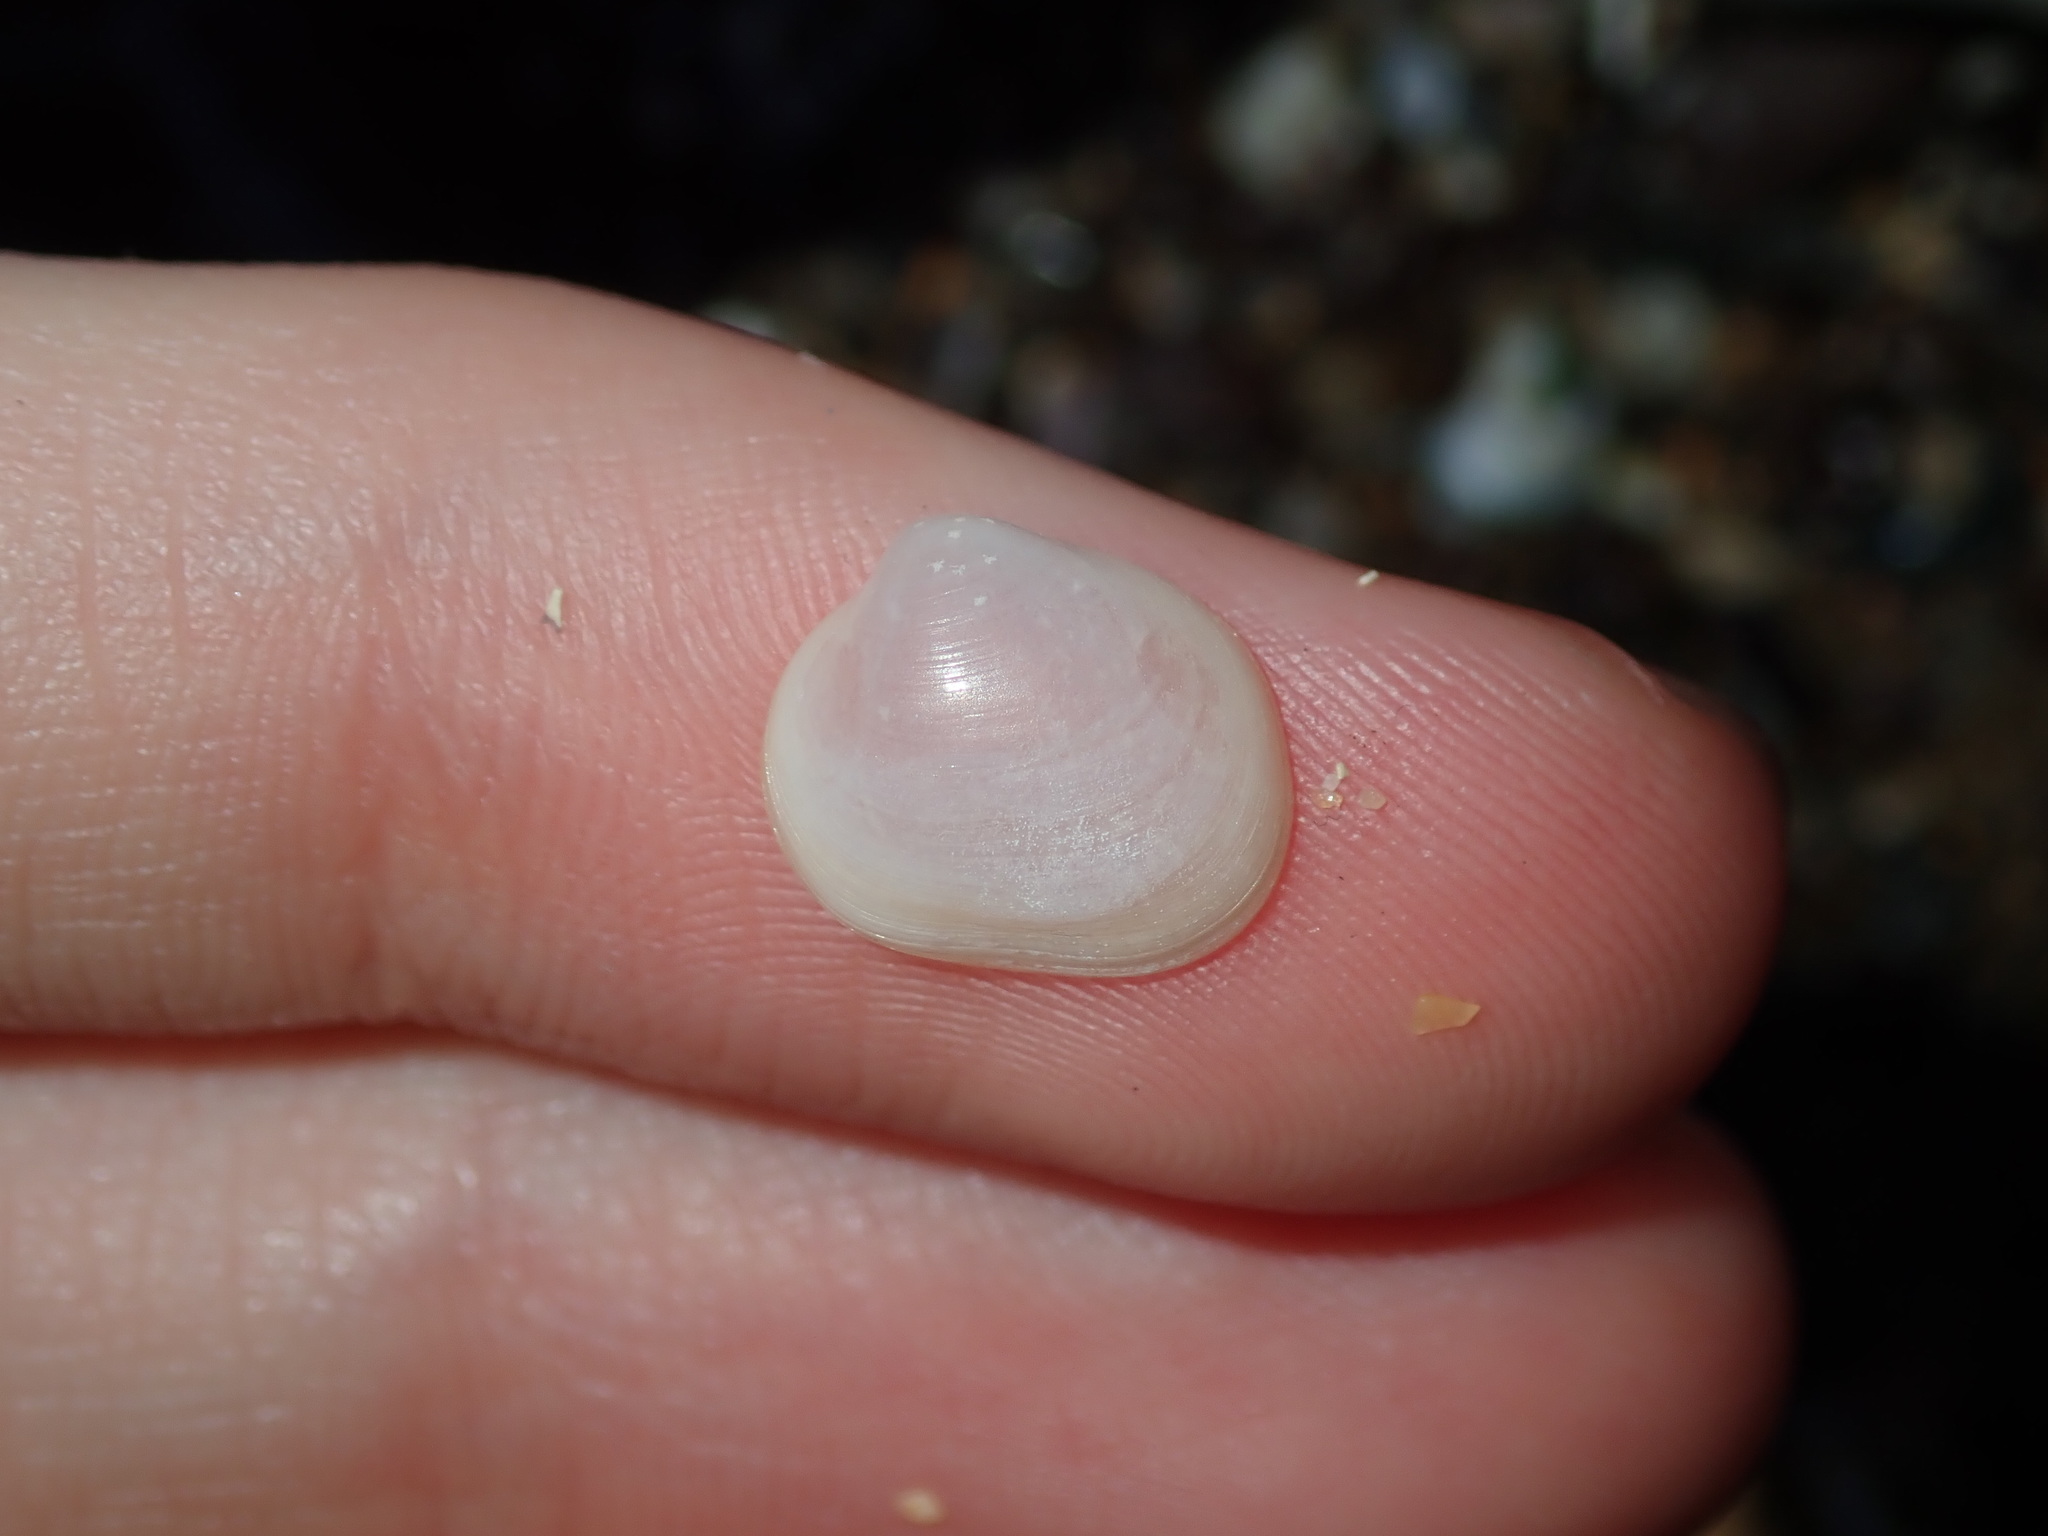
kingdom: Animalia
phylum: Mollusca
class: Bivalvia
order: Galeommatida
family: Galeommatidae
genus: Scintillula
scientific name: Scintillula solida
